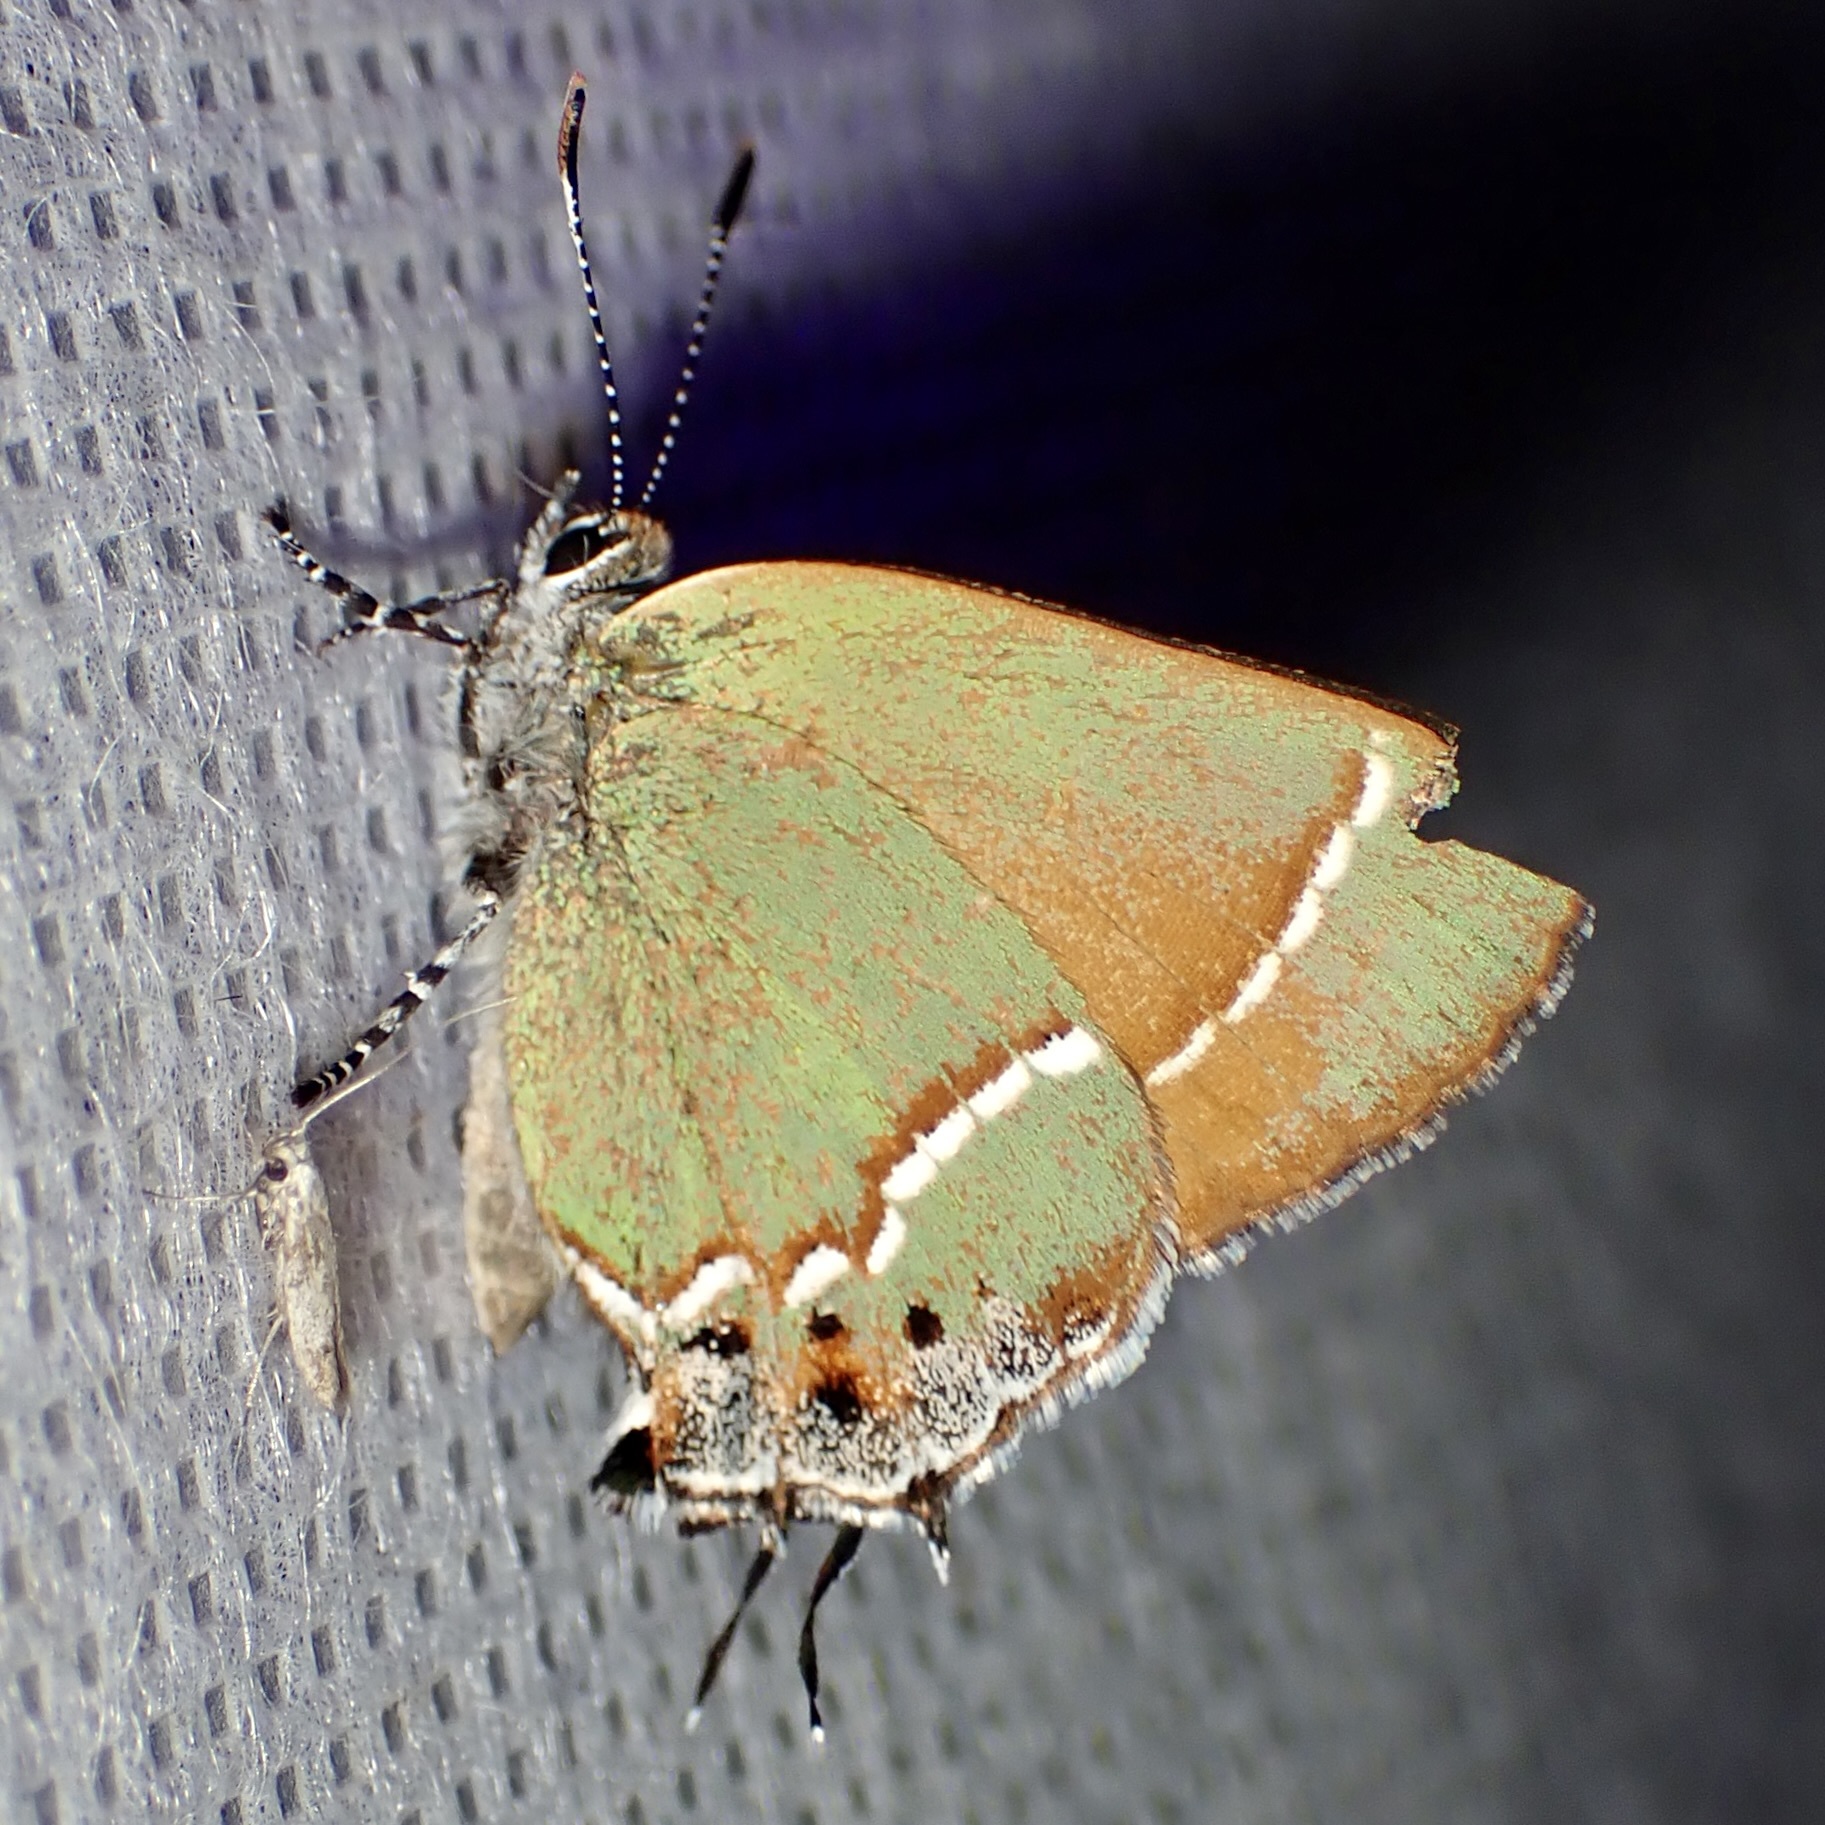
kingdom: Animalia
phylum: Arthropoda
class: Insecta
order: Lepidoptera
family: Lycaenidae
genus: Mitoura
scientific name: Mitoura gryneus
